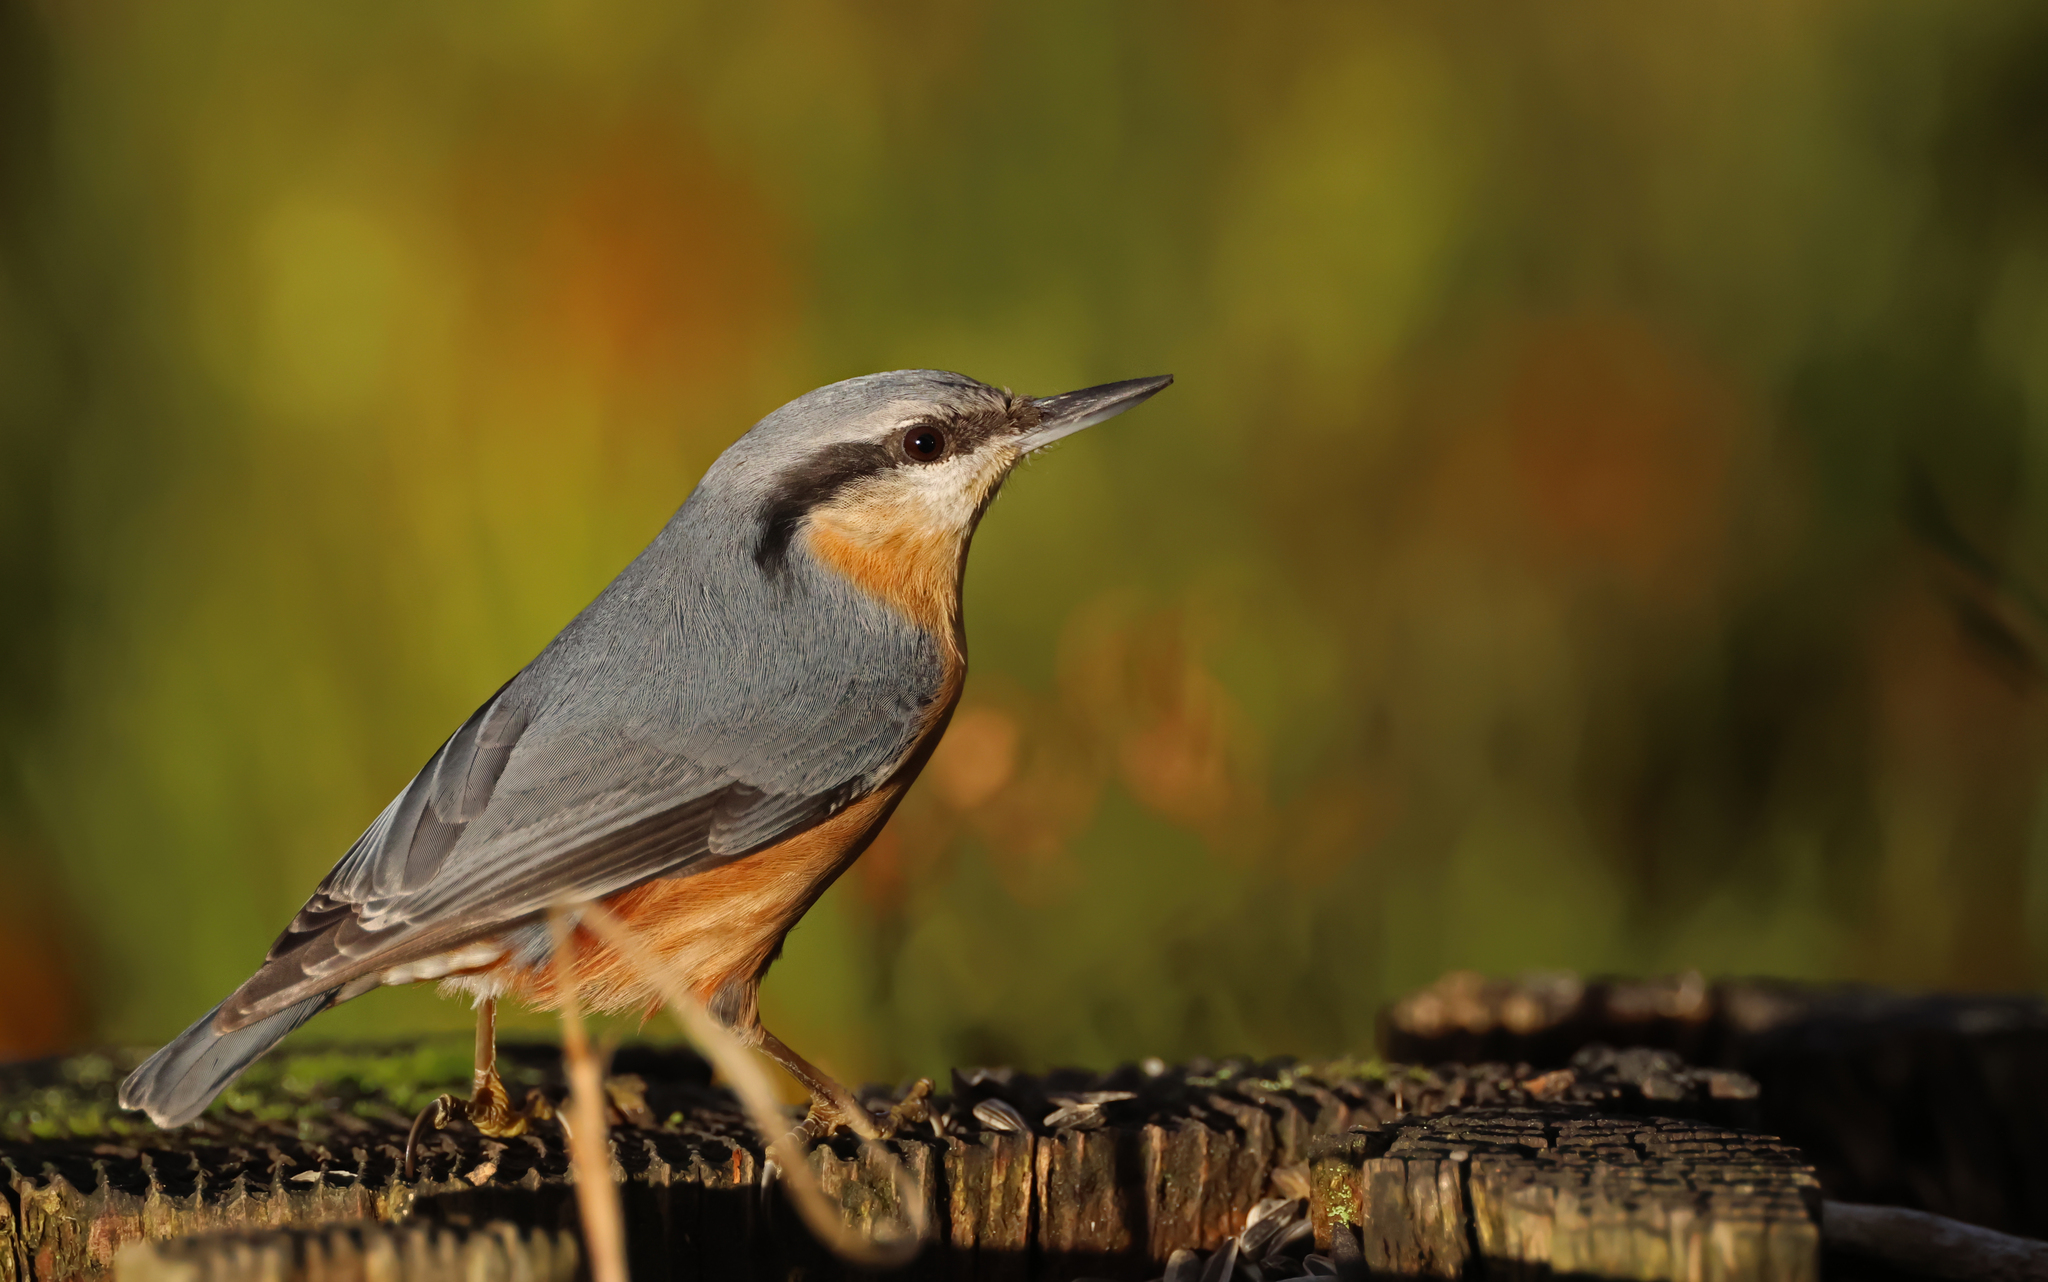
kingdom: Animalia
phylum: Chordata
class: Aves
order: Passeriformes
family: Sittidae
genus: Sitta
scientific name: Sitta europaea
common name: Eurasian nuthatch
